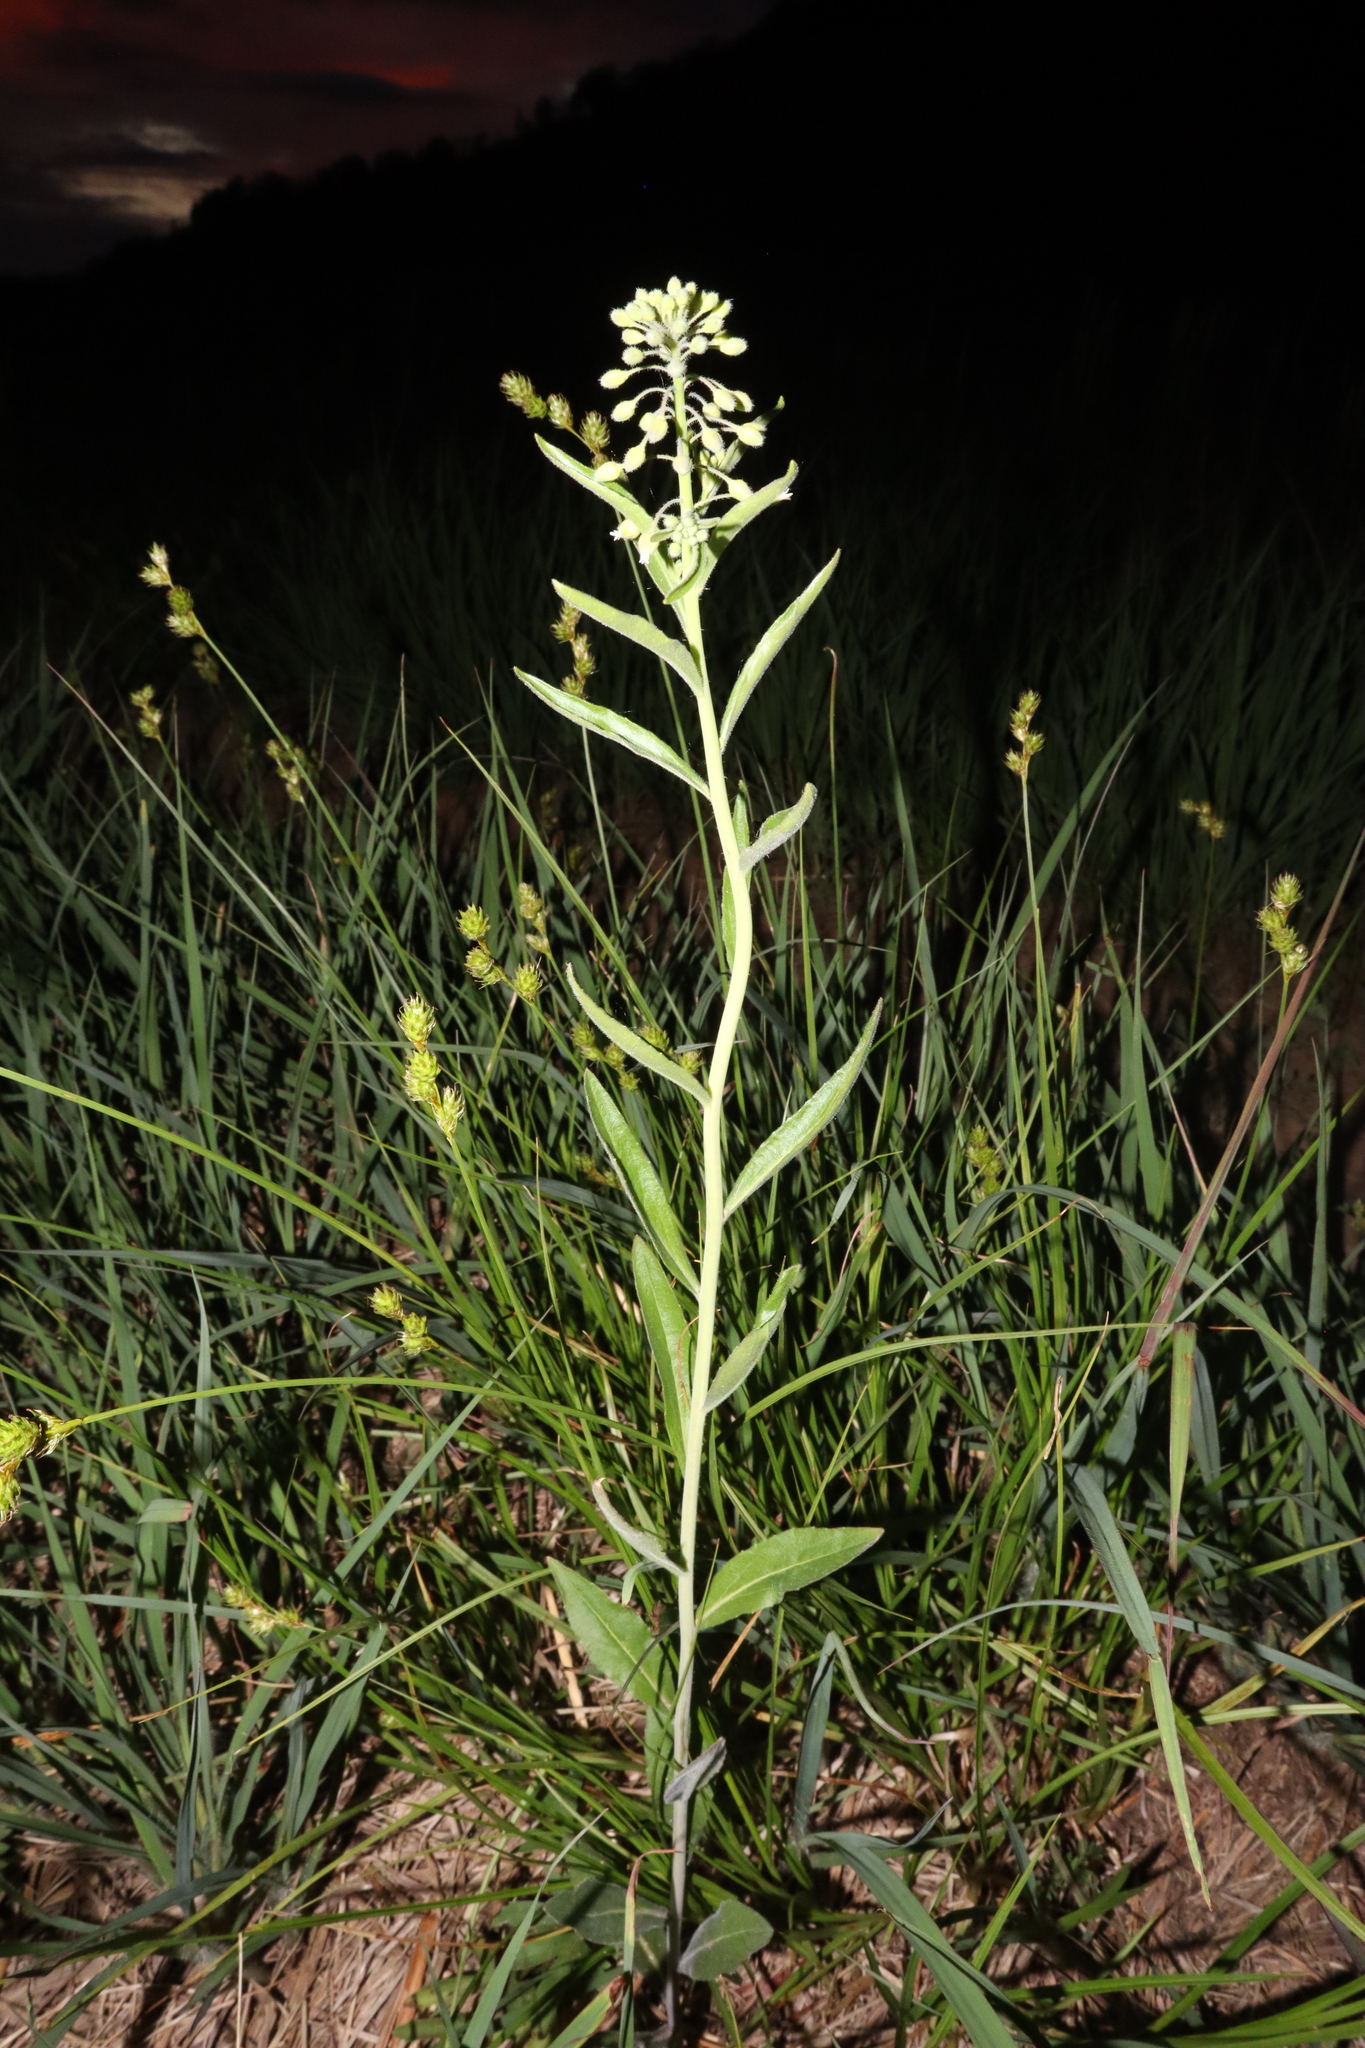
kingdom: Plantae
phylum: Tracheophyta
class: Magnoliopsida
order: Brassicales
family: Brassicaceae
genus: Borodinia
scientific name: Borodinia canadensis
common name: Sicklepod
